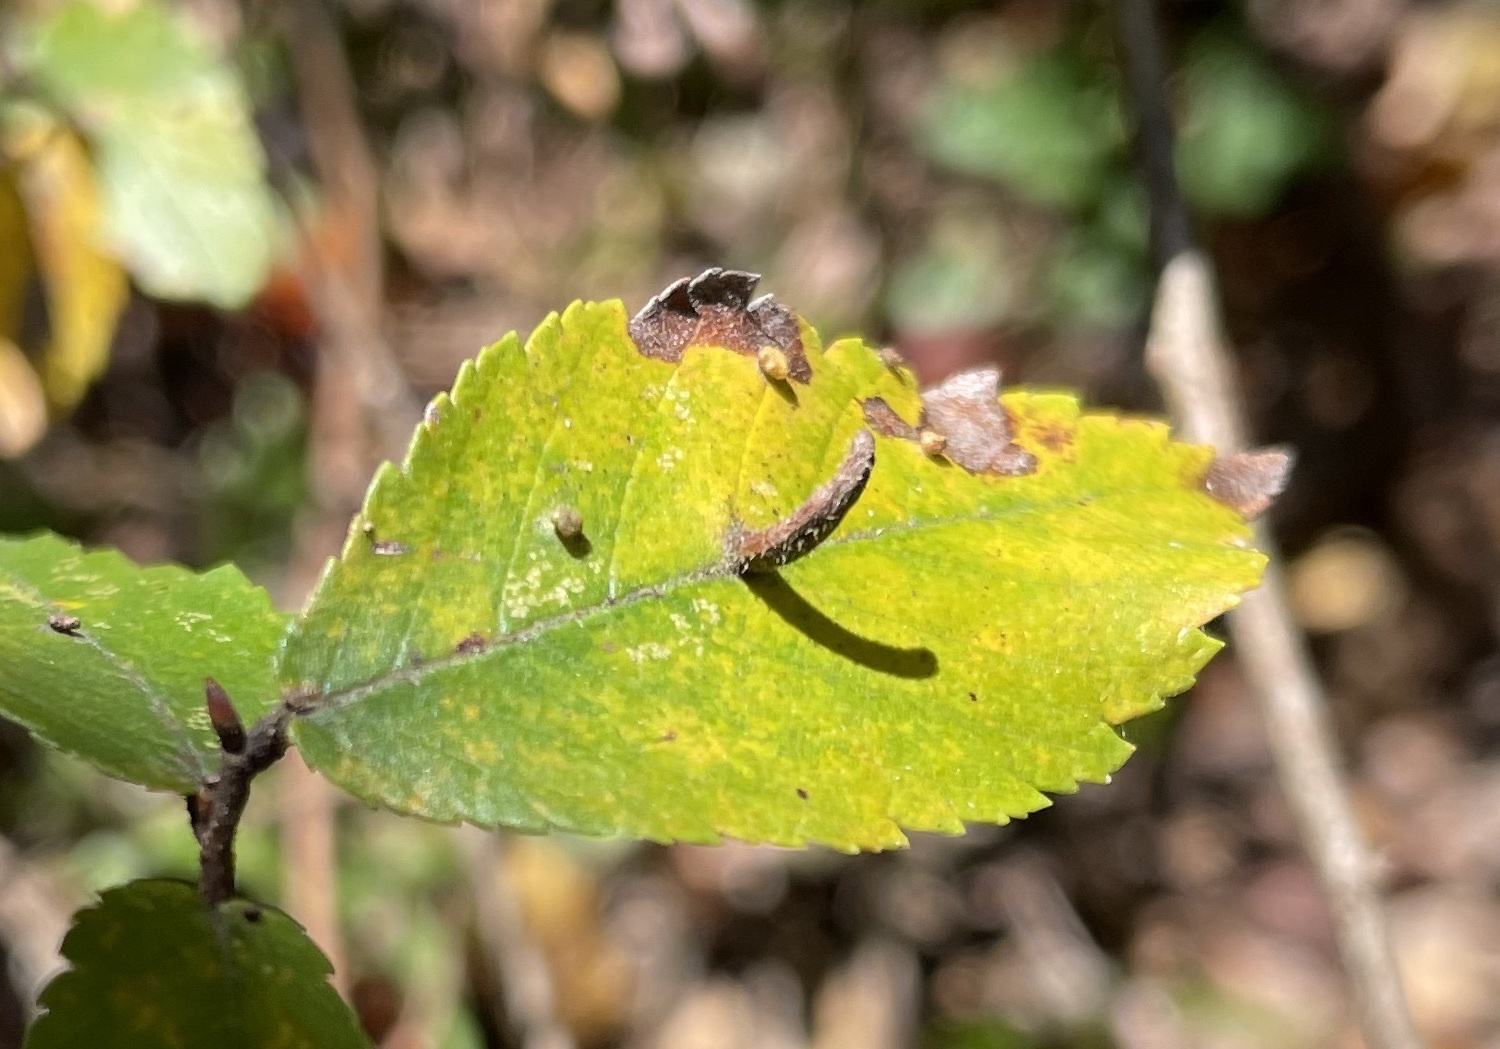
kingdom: Animalia
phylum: Arthropoda
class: Arachnida
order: Trombidiformes
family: Eriophyidae
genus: Aceria
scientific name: Aceria
